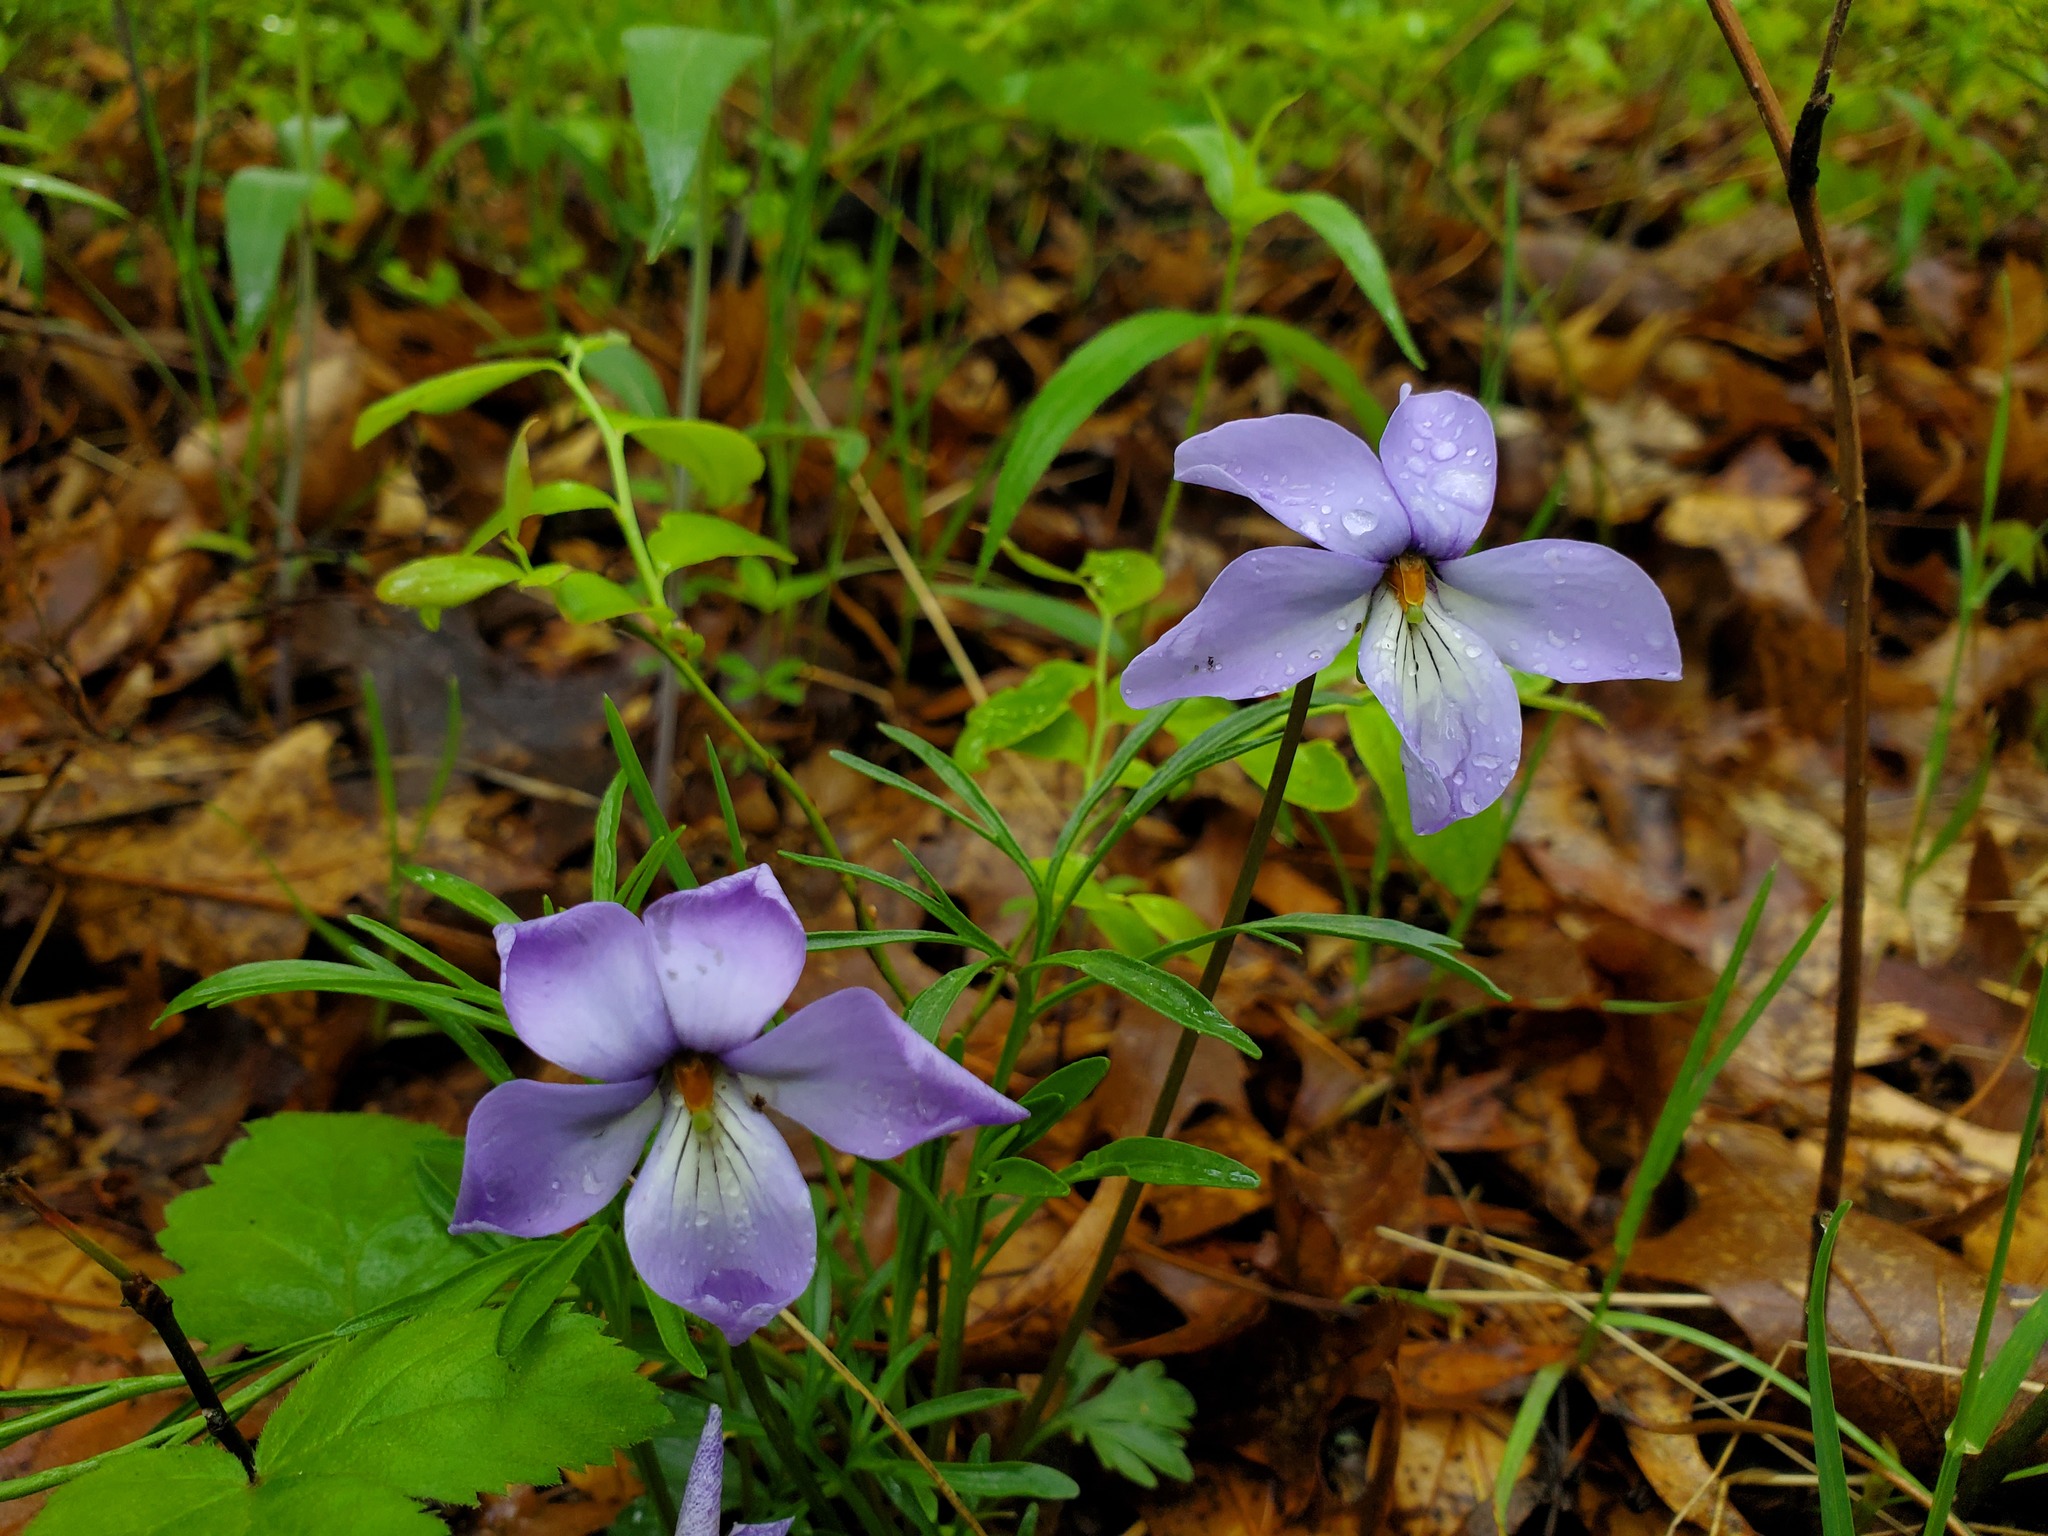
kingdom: Plantae
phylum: Tracheophyta
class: Magnoliopsida
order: Malpighiales
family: Violaceae
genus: Viola
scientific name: Viola pedata
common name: Pansy violet
